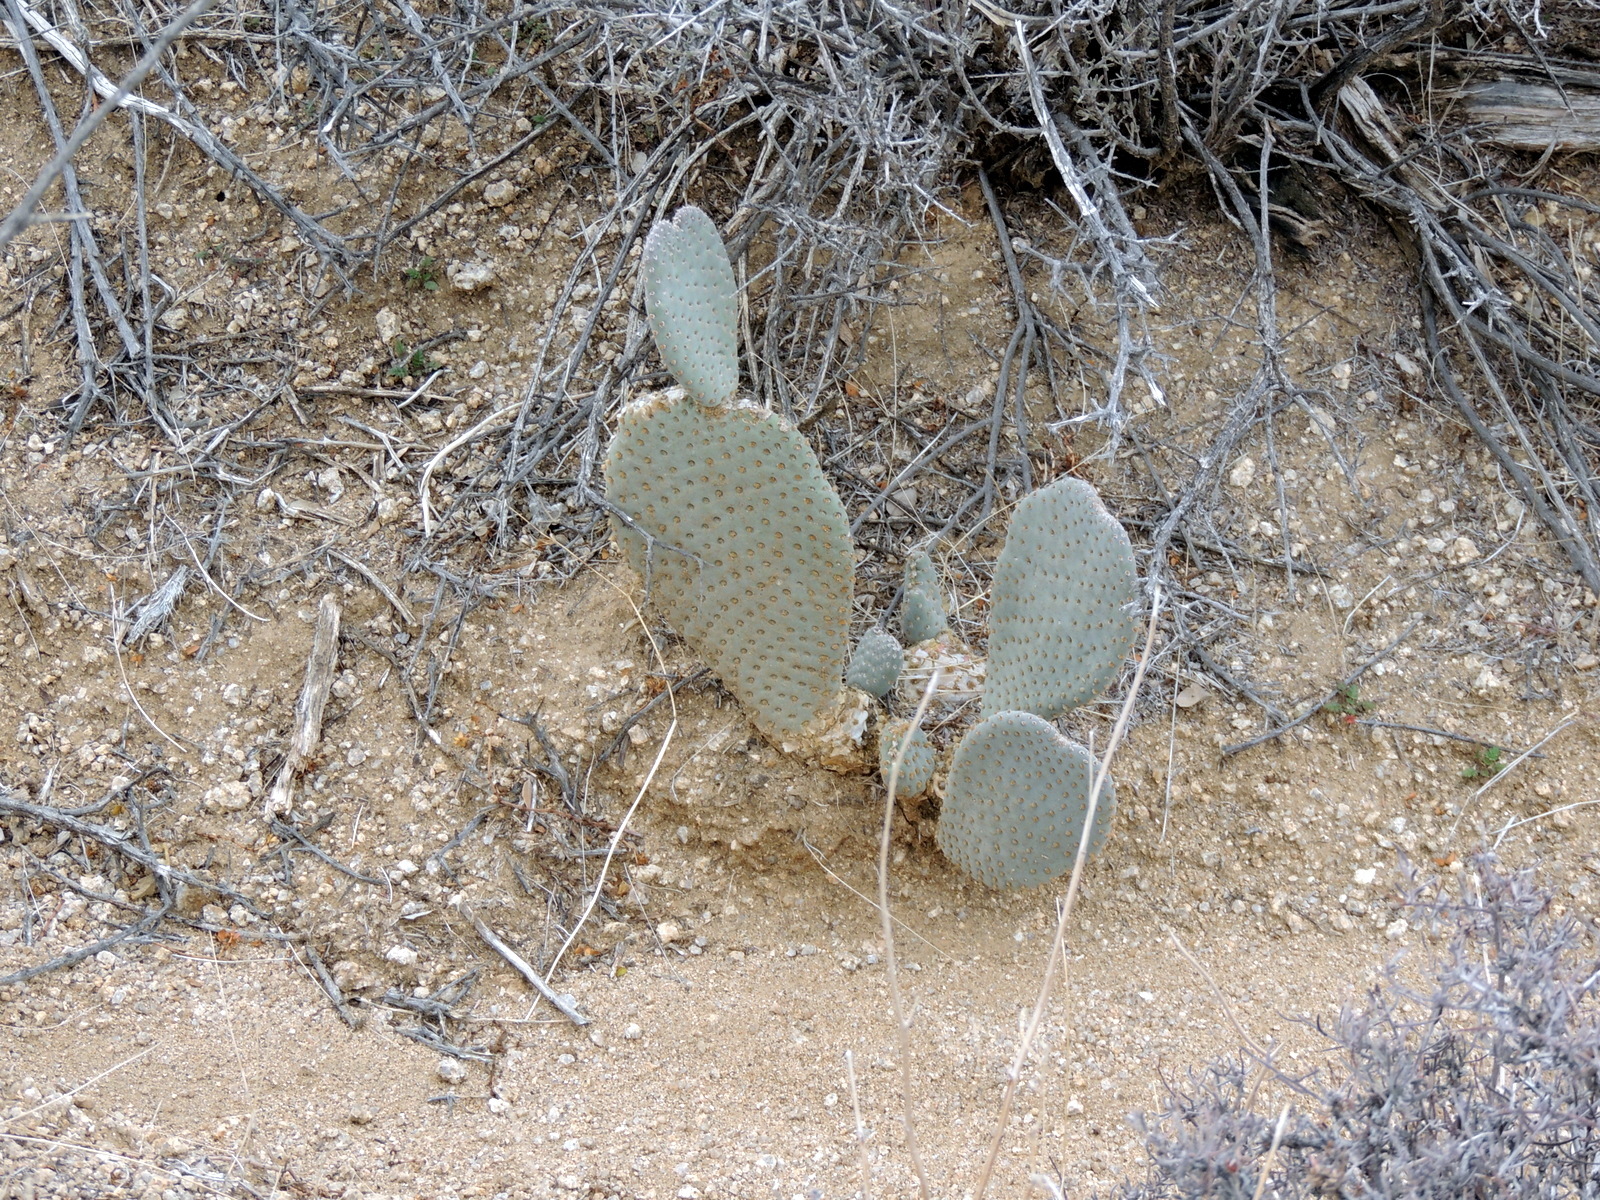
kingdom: Plantae
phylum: Tracheophyta
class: Magnoliopsida
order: Caryophyllales
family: Cactaceae
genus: Opuntia
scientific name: Opuntia basilaris
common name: Beavertail prickly-pear
